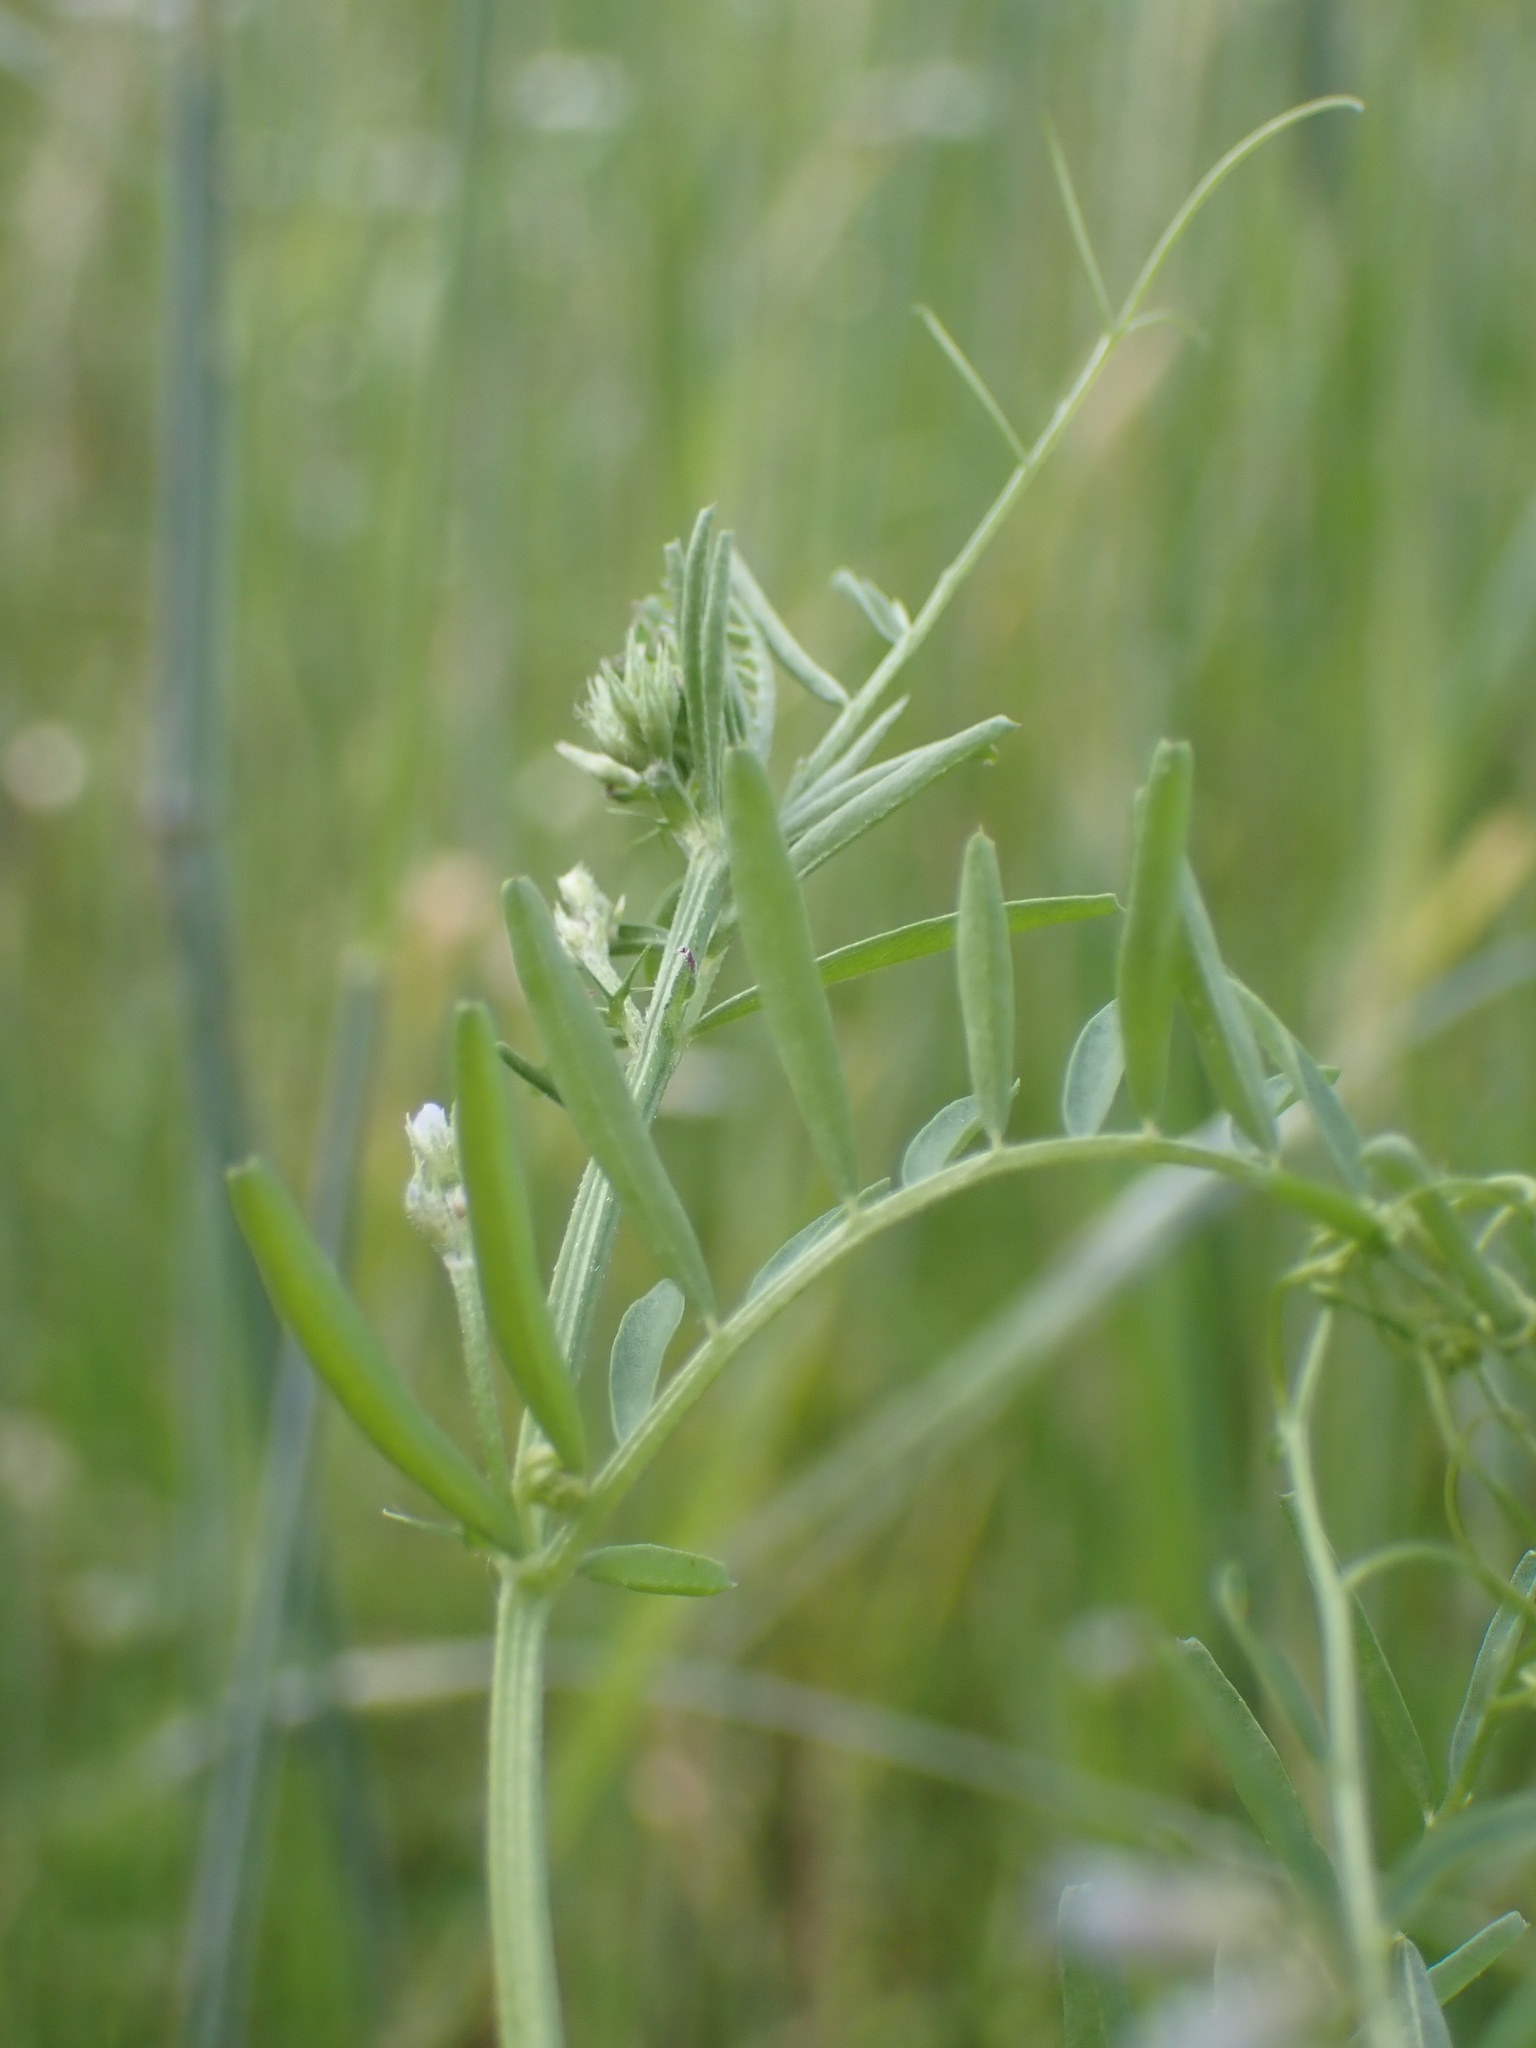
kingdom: Plantae
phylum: Tracheophyta
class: Magnoliopsida
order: Fabales
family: Fabaceae
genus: Vicia
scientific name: Vicia hirsuta
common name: Tiny vetch
